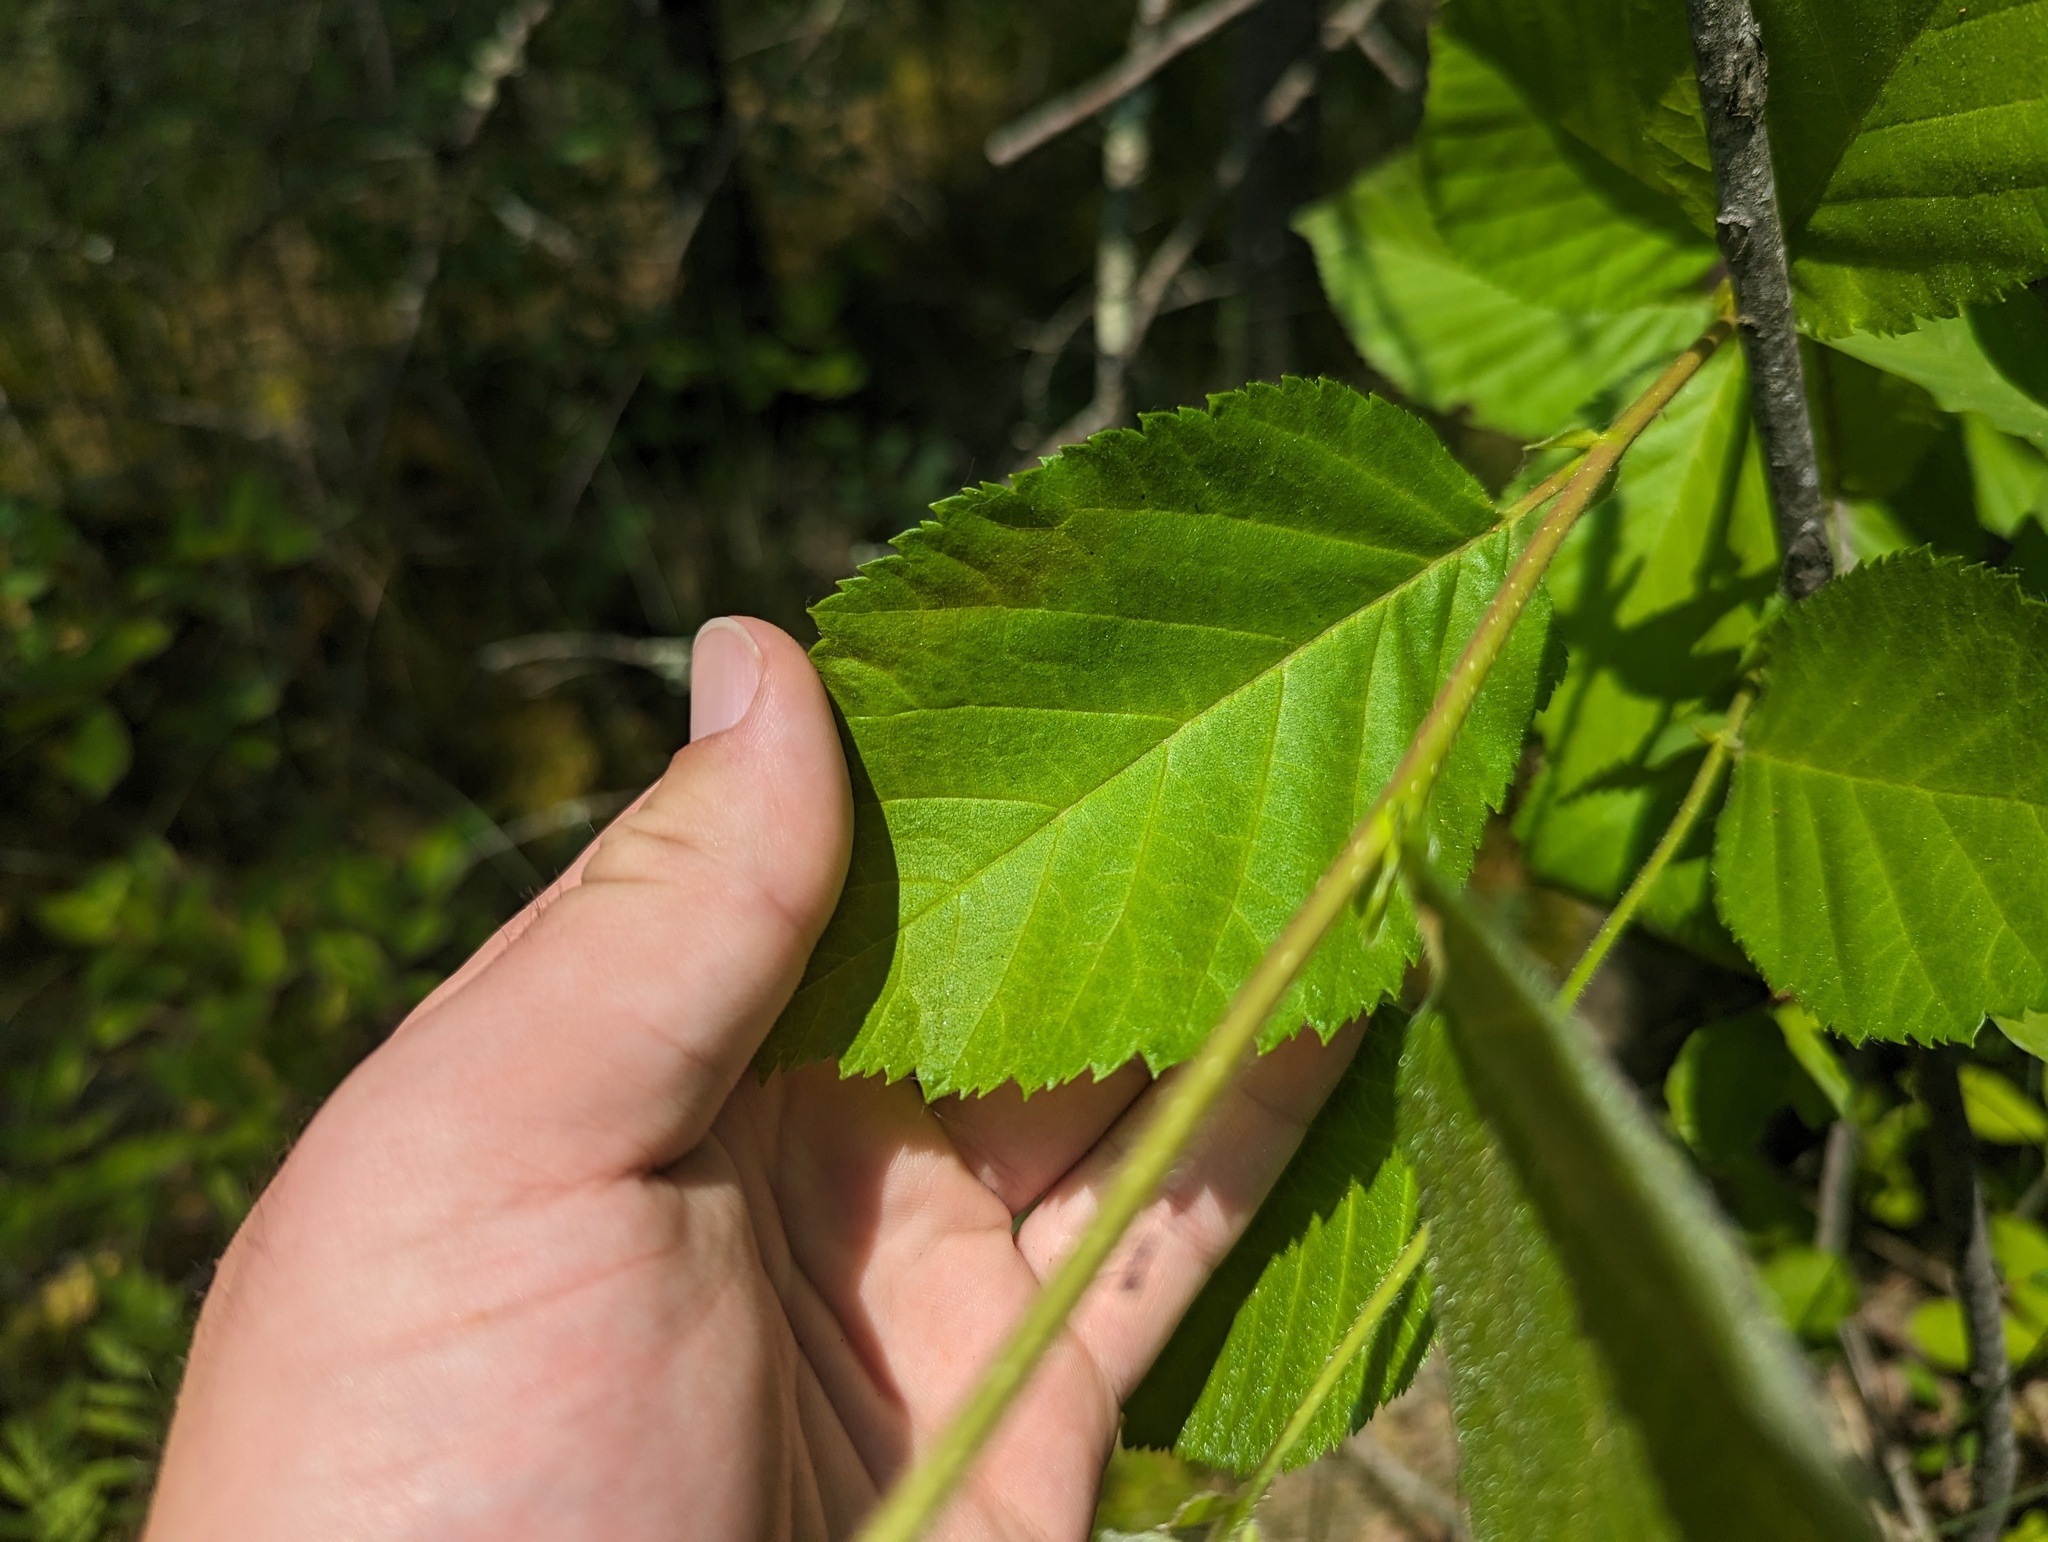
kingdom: Plantae
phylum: Tracheophyta
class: Magnoliopsida
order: Fagales
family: Betulaceae
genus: Betula
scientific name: Betula alleghaniensis
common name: Yellow birch
